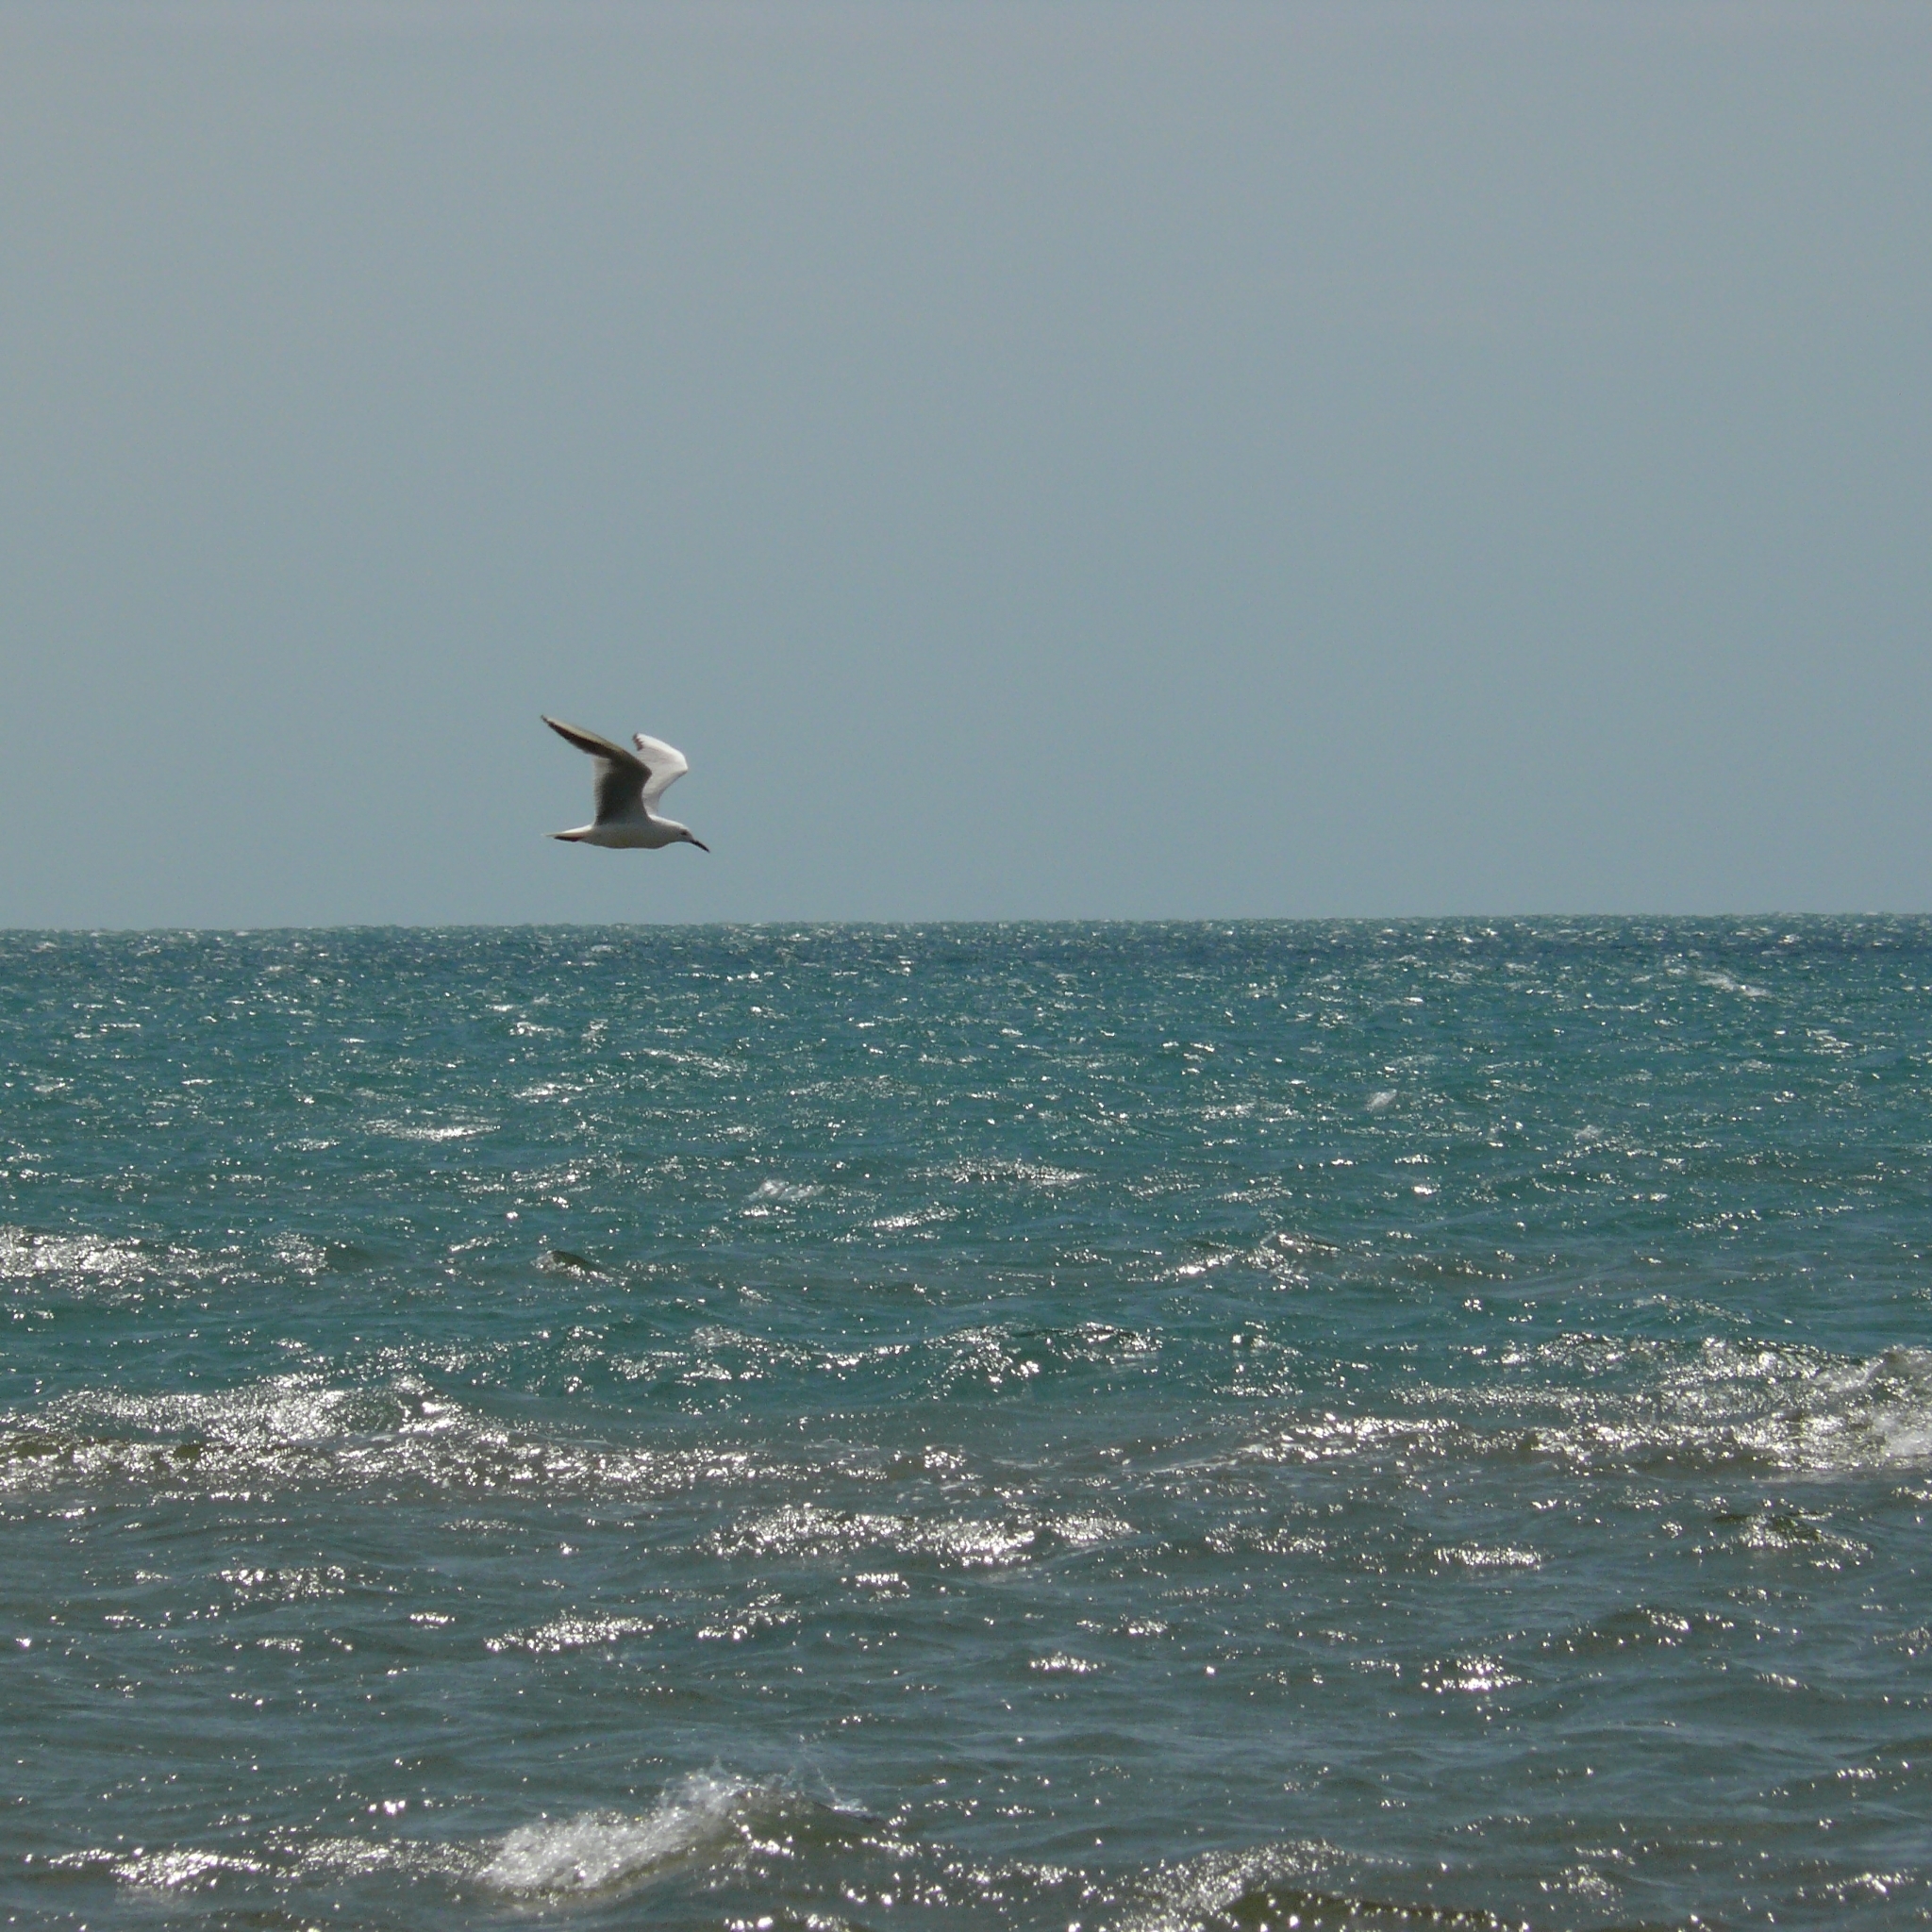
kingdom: Animalia
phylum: Chordata
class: Aves
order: Charadriiformes
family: Laridae
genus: Chroicocephalus
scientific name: Chroicocephalus genei
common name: Slender-billed gull
